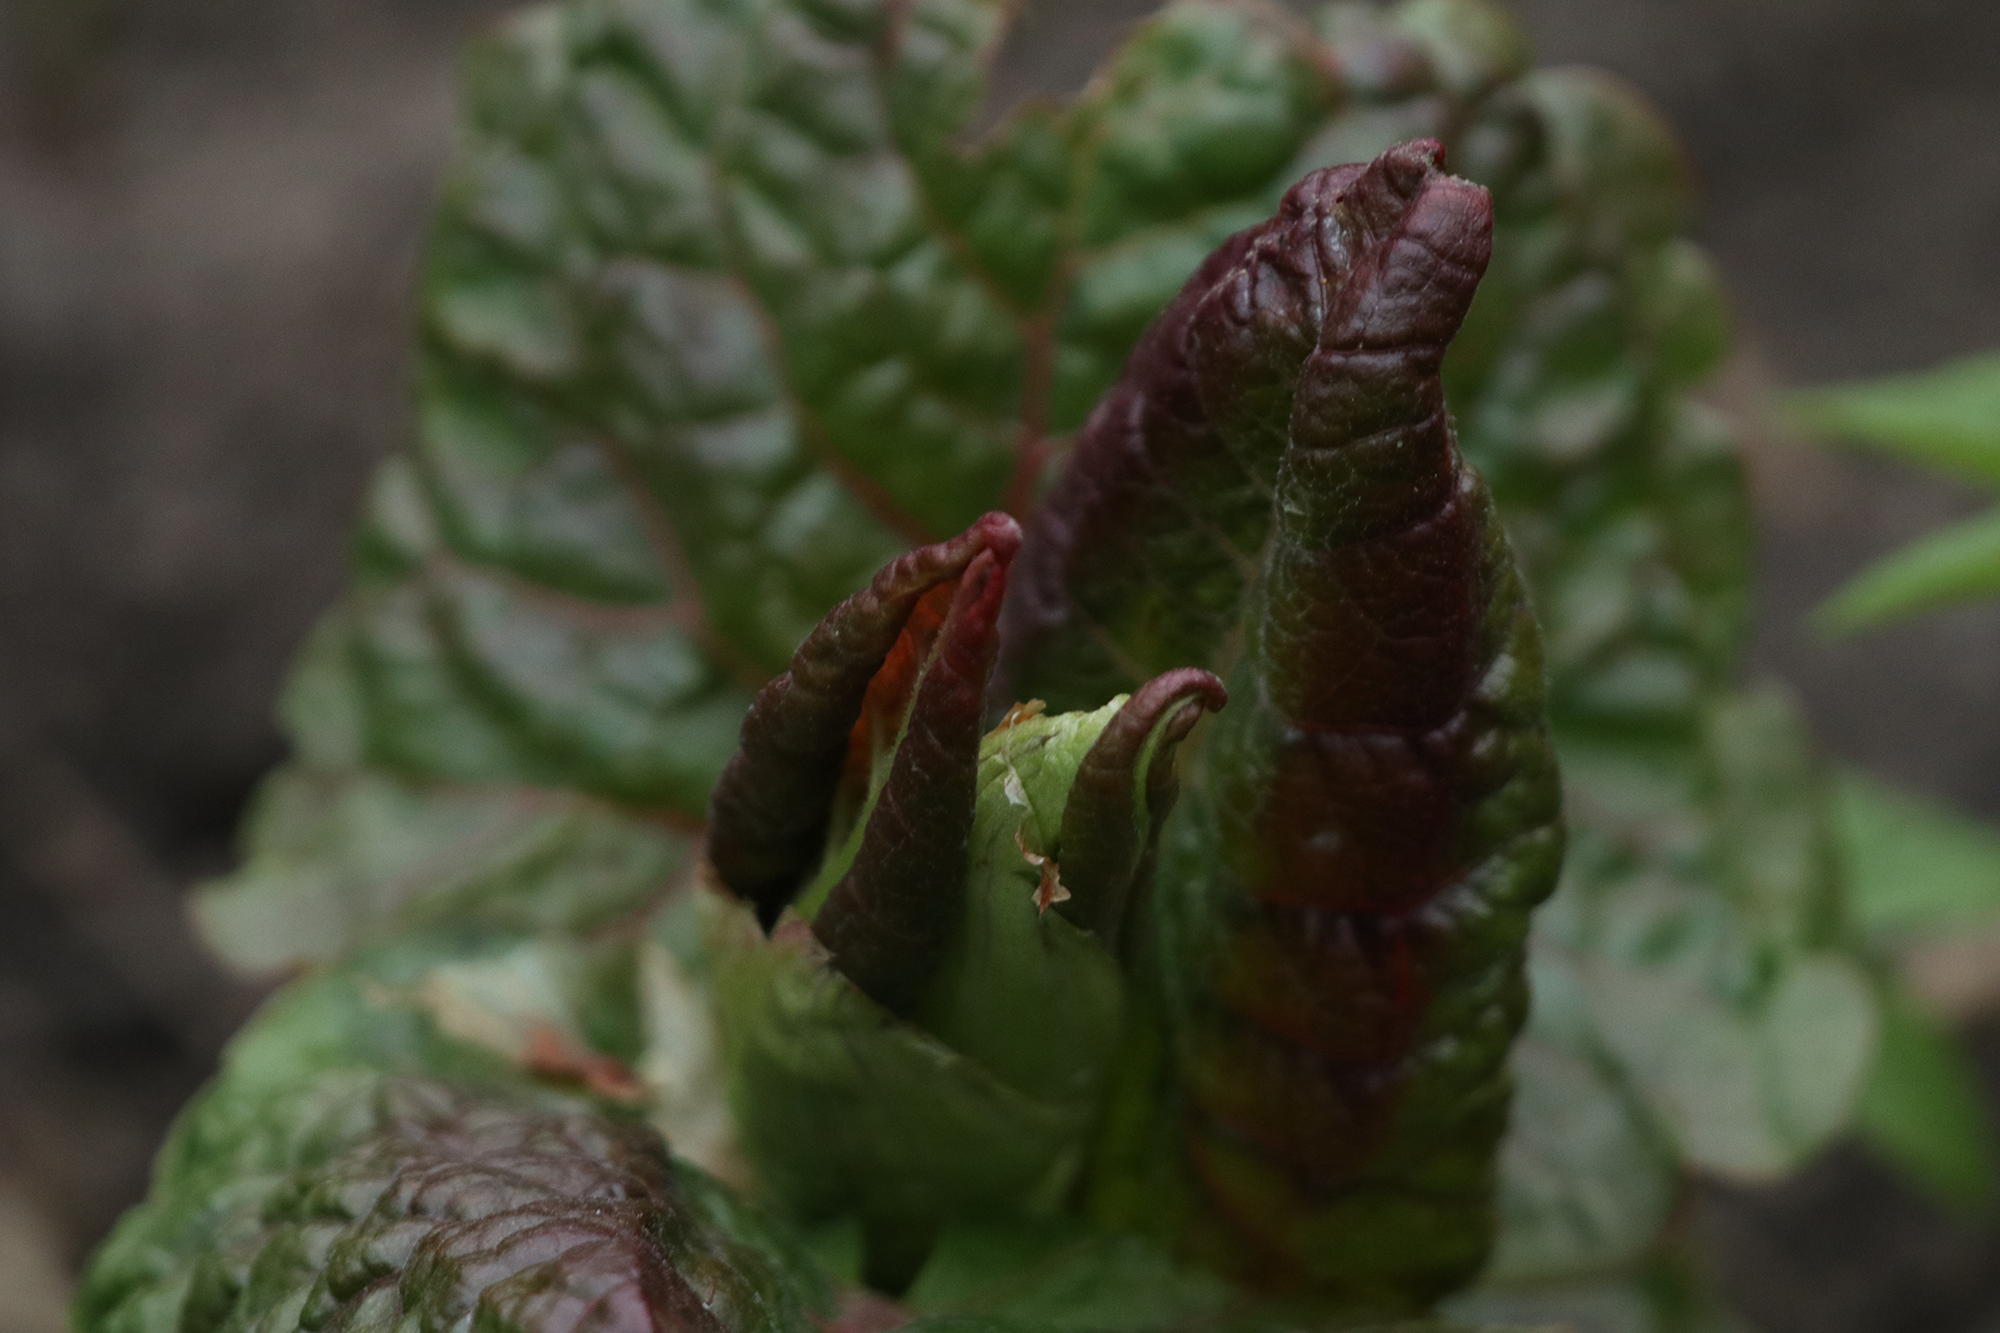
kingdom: Plantae
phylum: Tracheophyta
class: Magnoliopsida
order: Caryophyllales
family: Polygonaceae
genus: Reynoutria
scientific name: Reynoutria bohemica
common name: Bohemian knotweed
